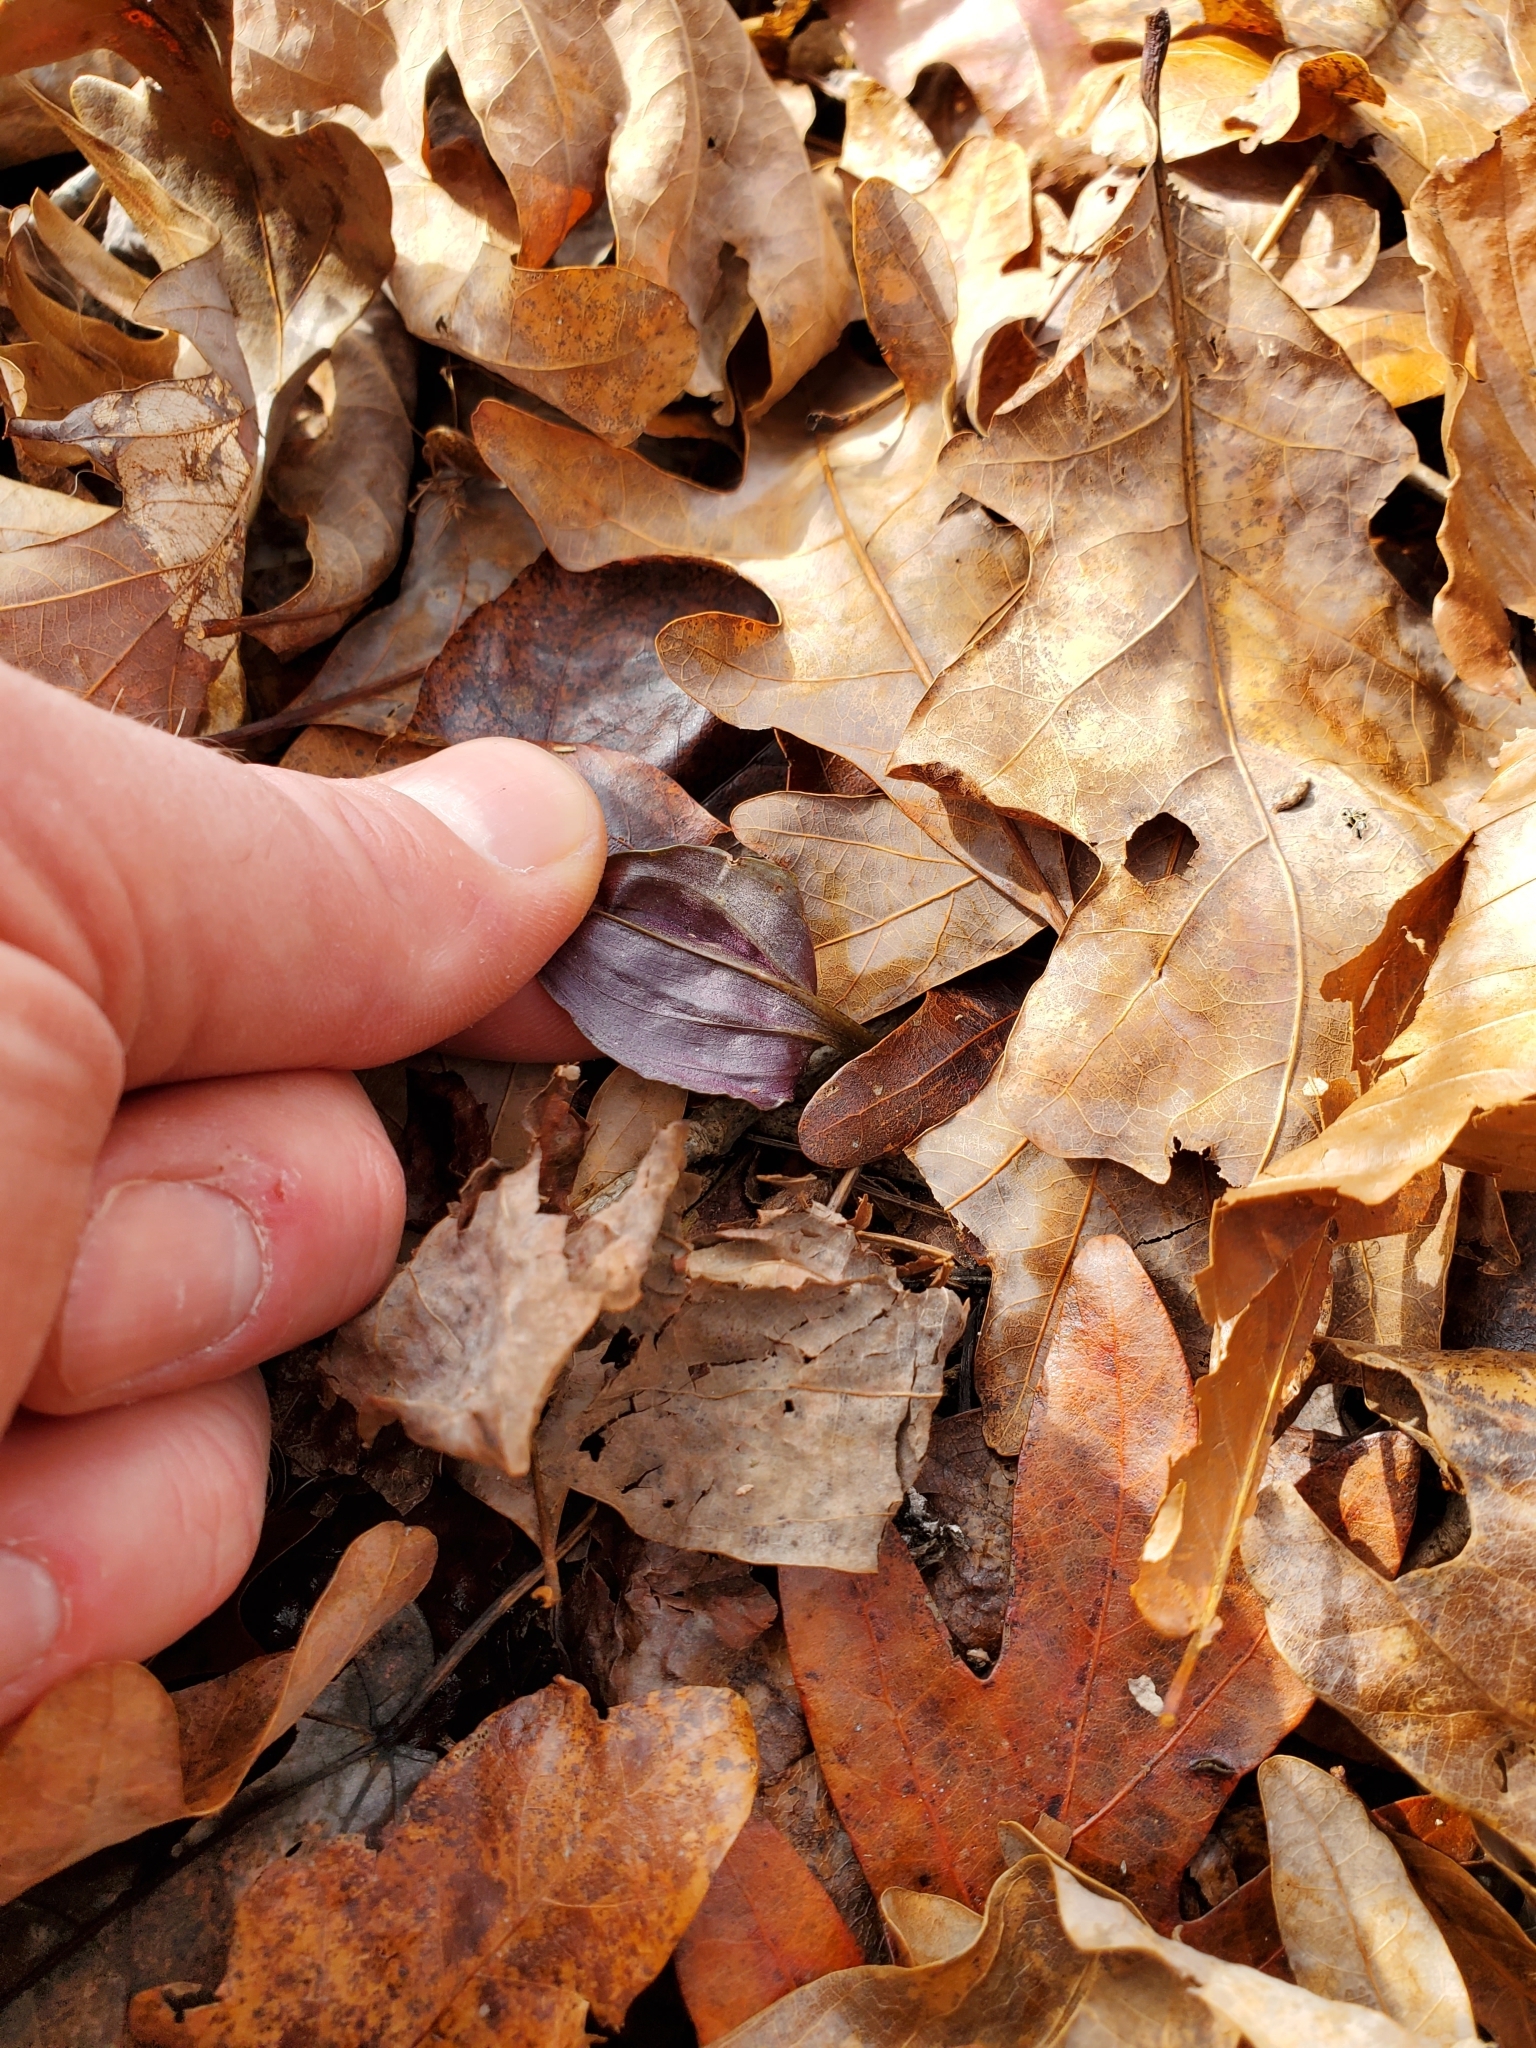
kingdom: Plantae
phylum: Tracheophyta
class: Liliopsida
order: Asparagales
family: Orchidaceae
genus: Tipularia
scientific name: Tipularia discolor
